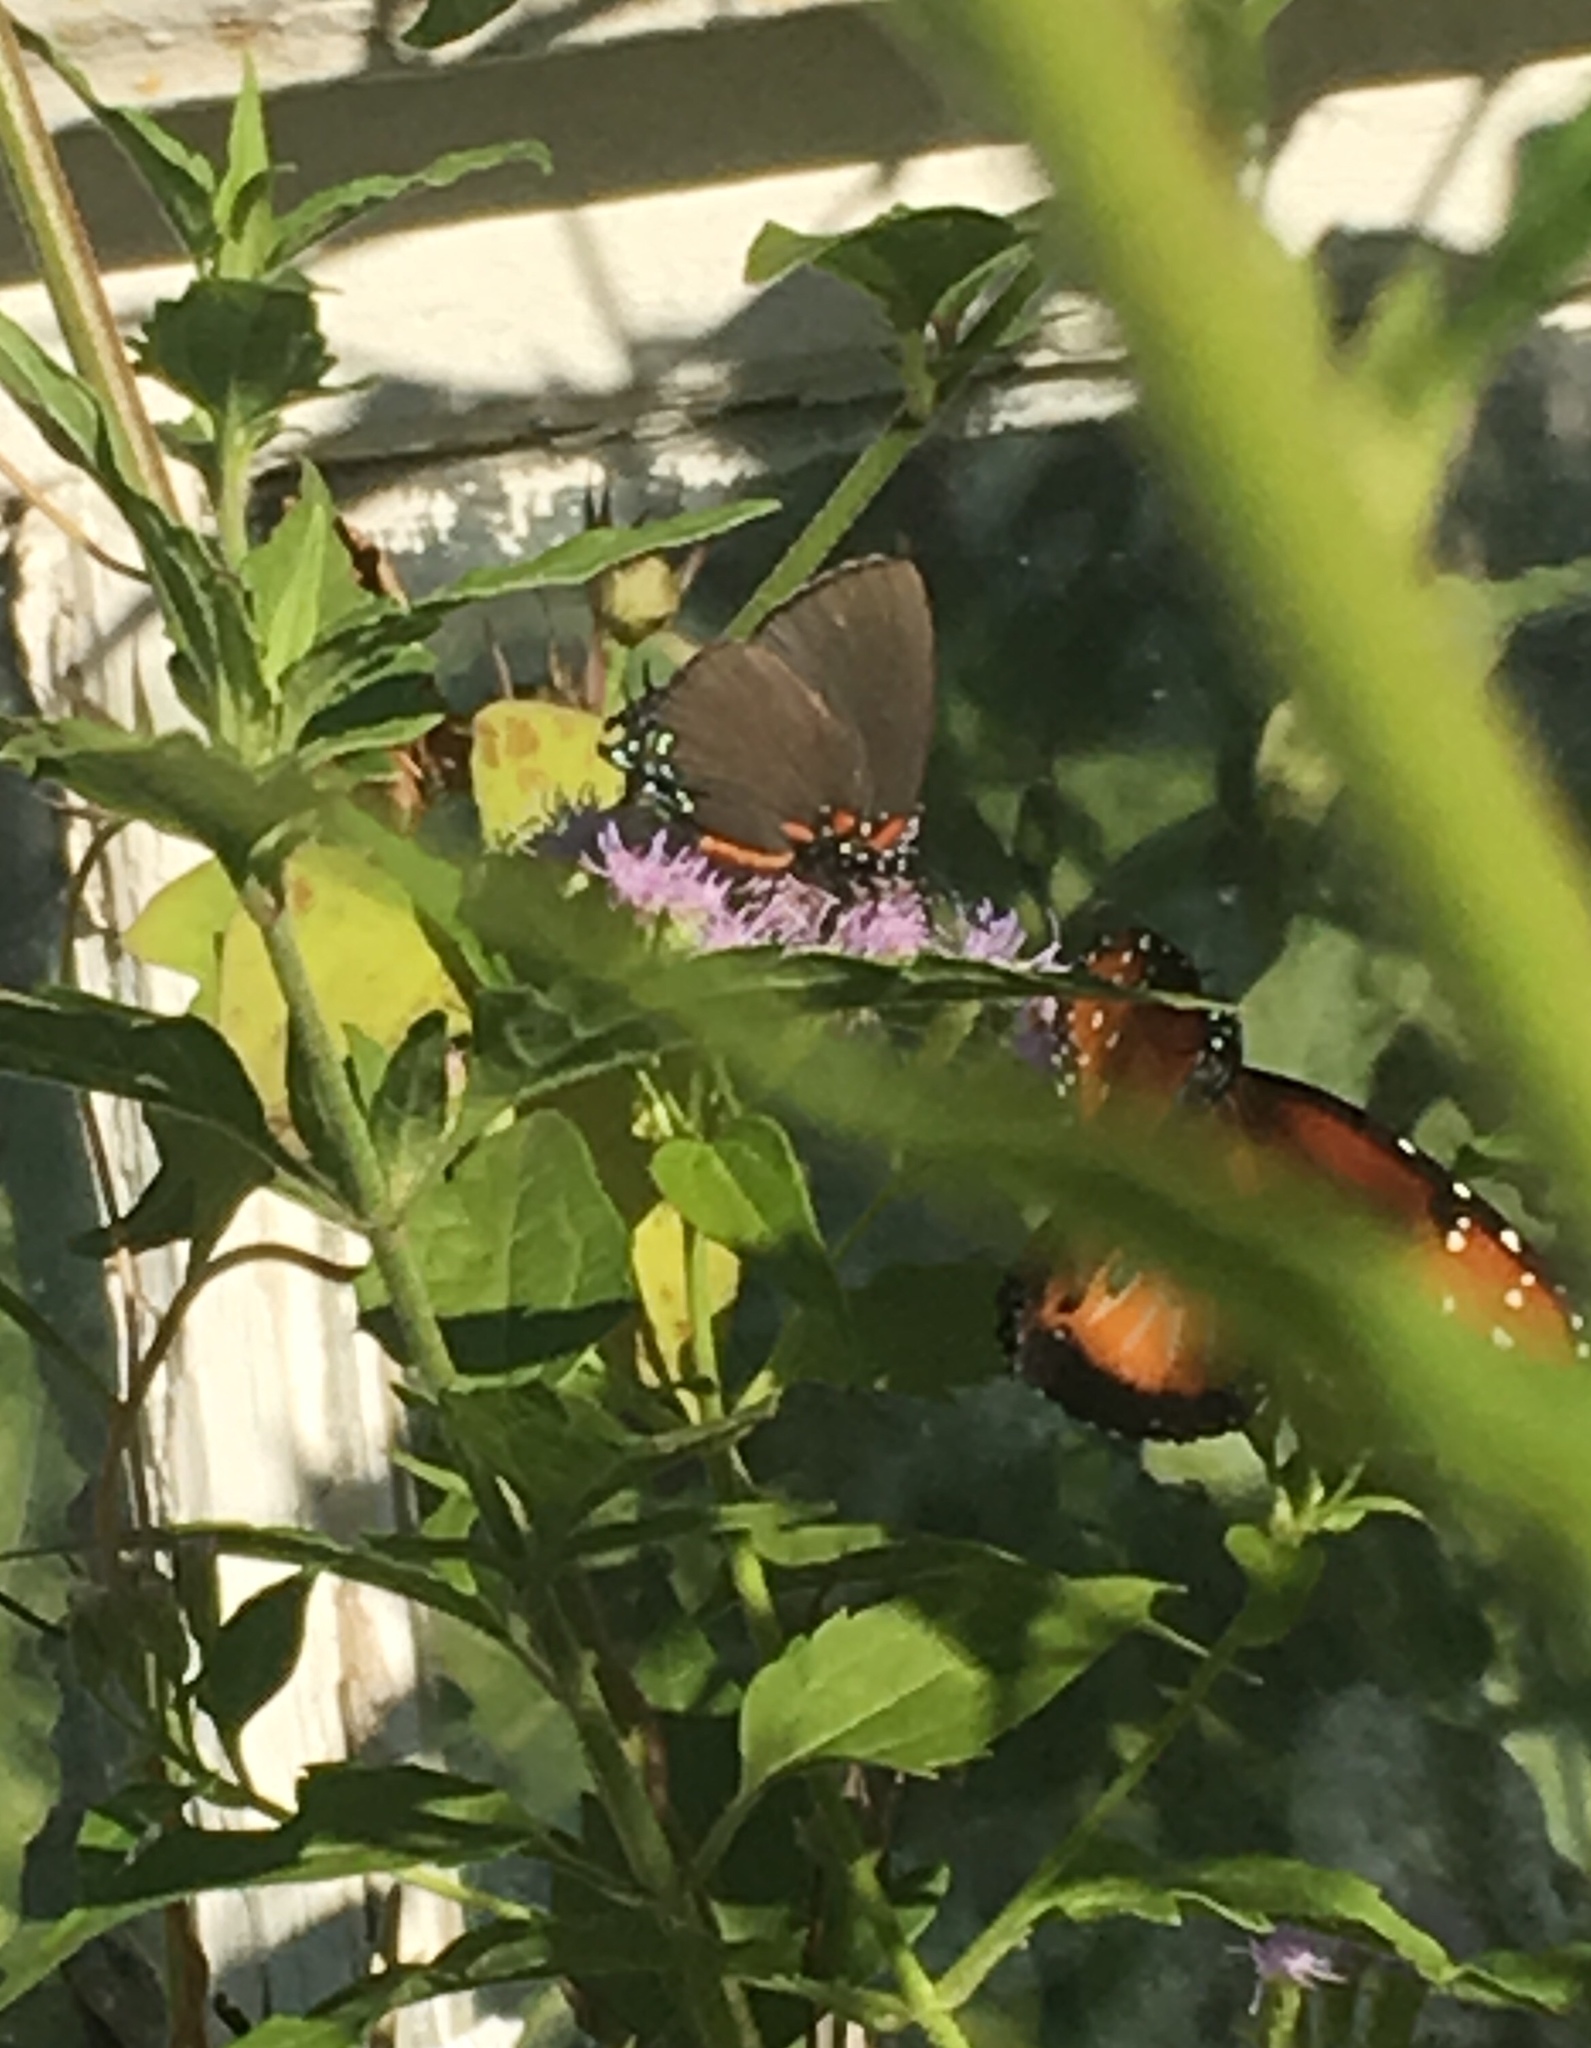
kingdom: Animalia
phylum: Arthropoda
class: Insecta
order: Lepidoptera
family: Lycaenidae
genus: Atlides
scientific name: Atlides halesus
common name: Great purple hairstreak
